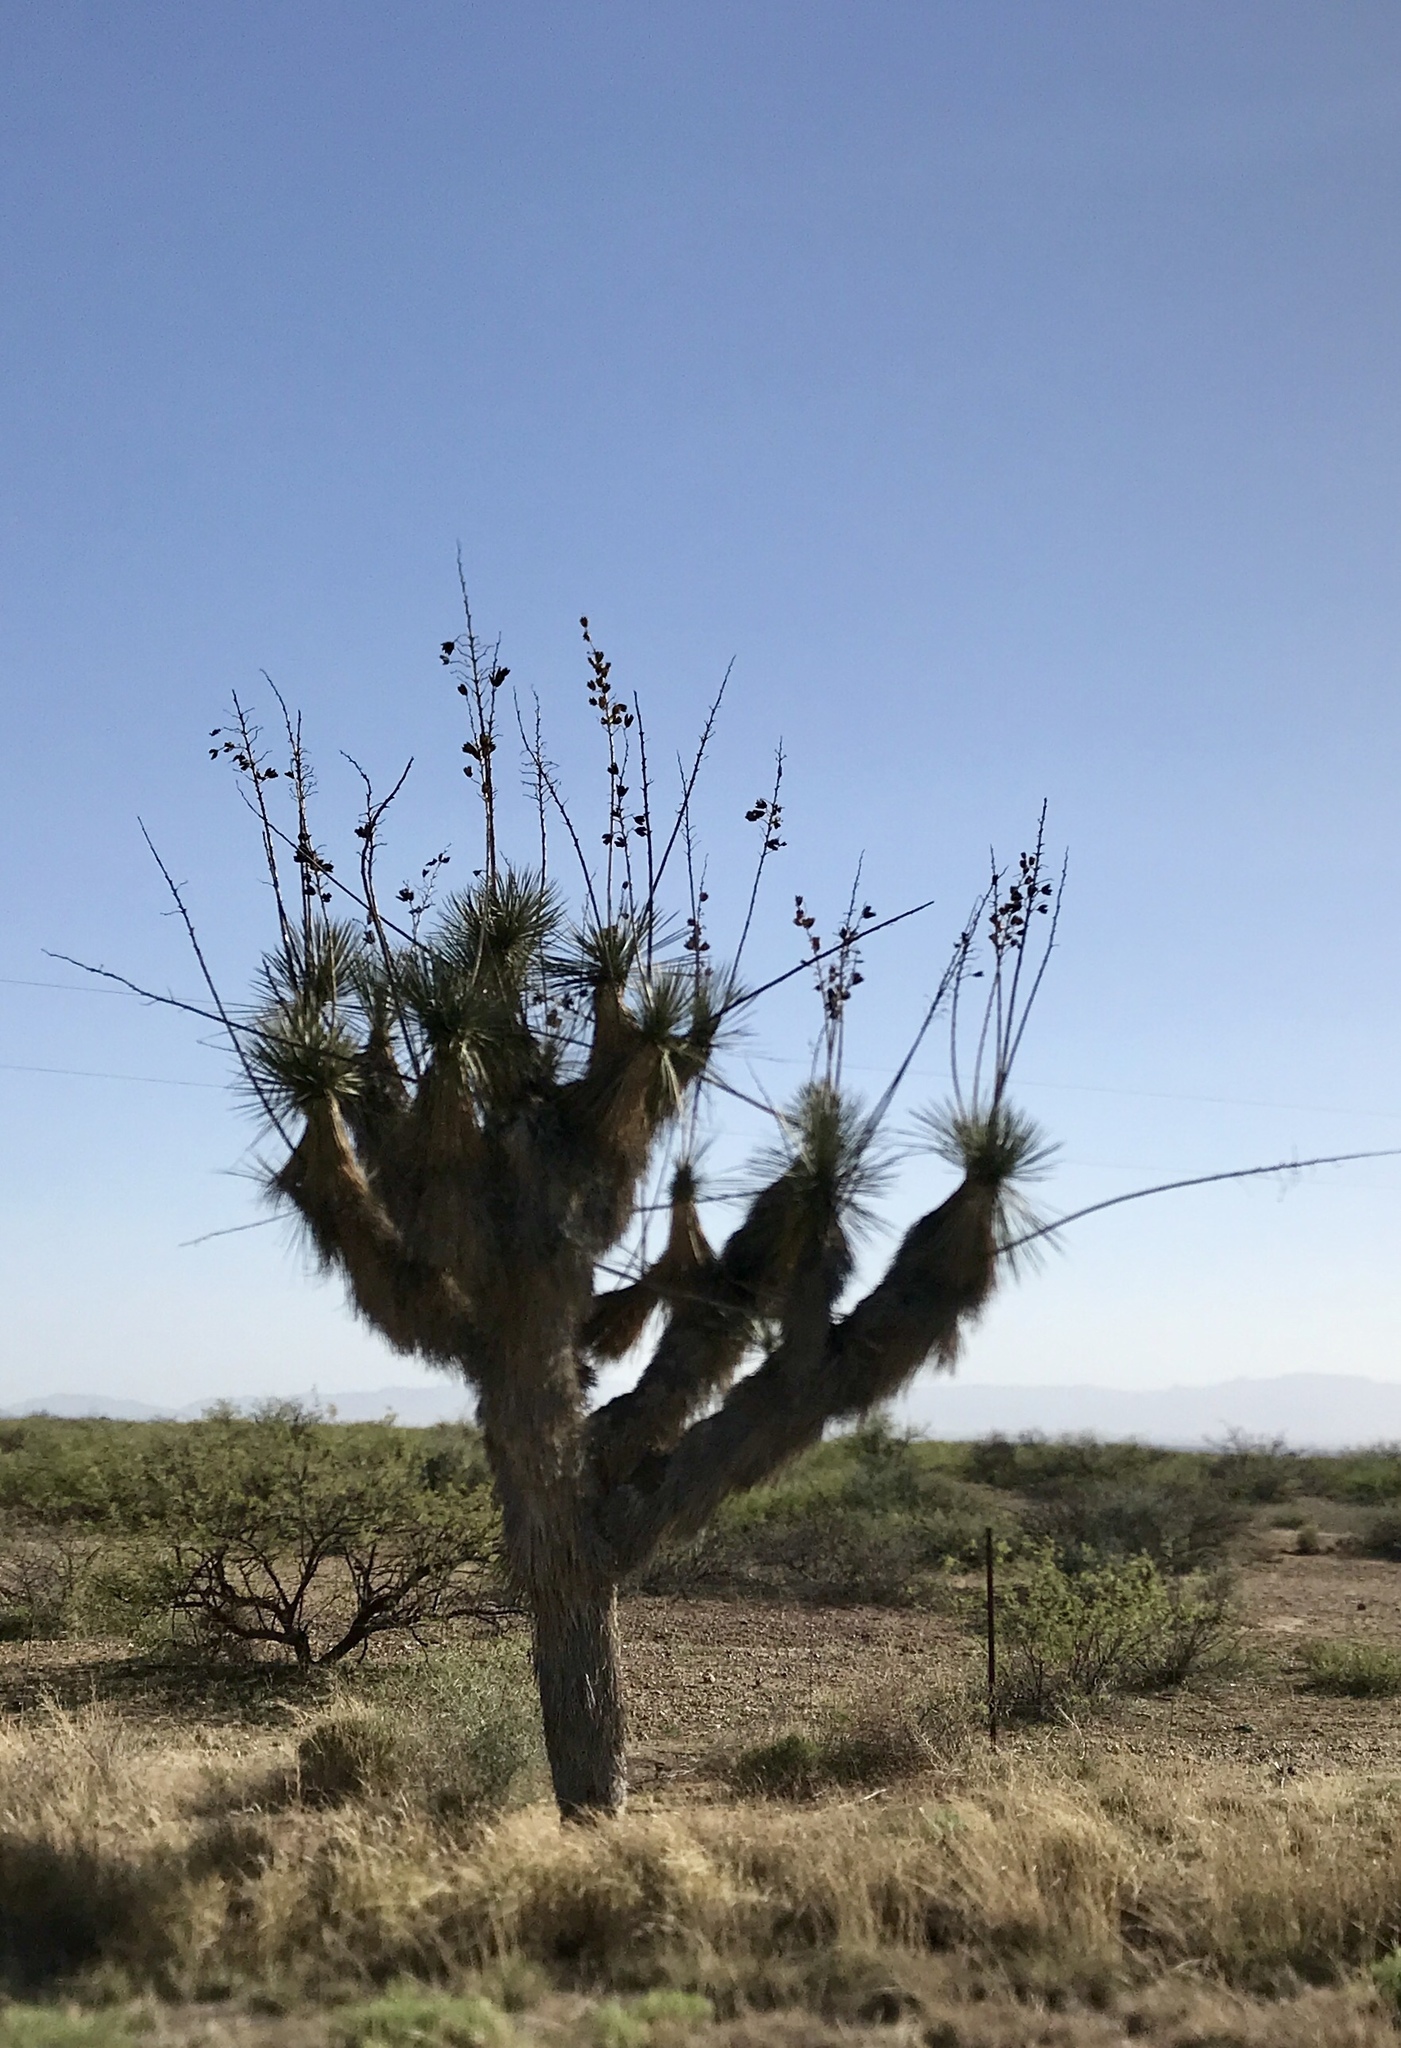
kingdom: Plantae
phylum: Tracheophyta
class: Liliopsida
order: Asparagales
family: Asparagaceae
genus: Yucca
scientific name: Yucca elata
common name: Palmella
